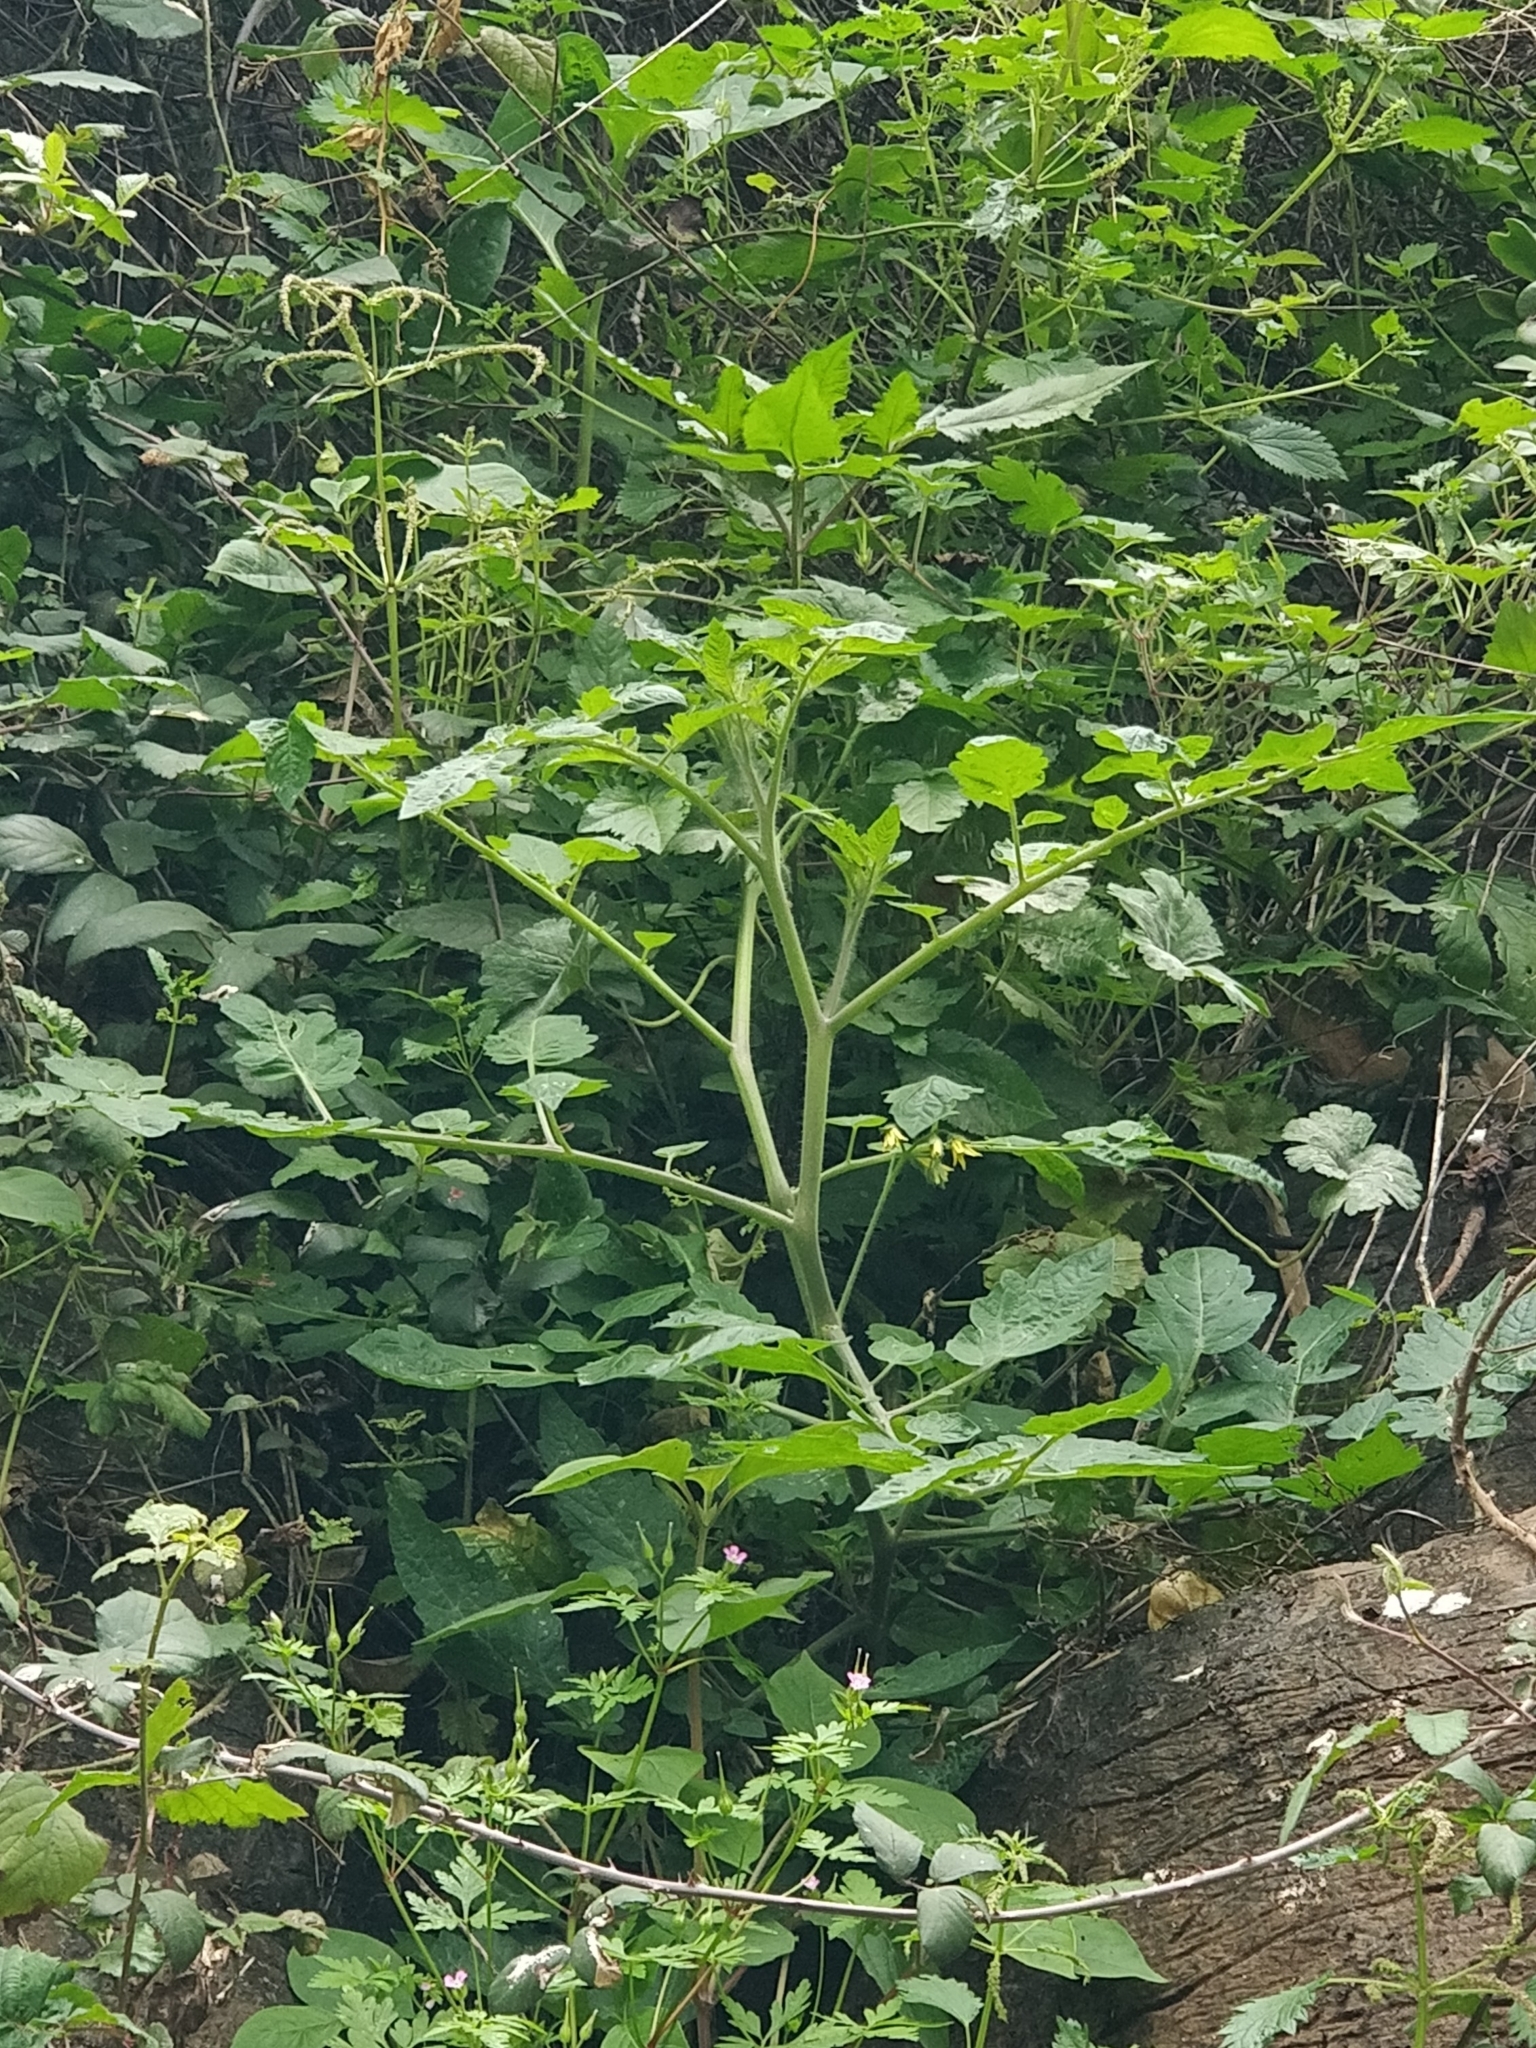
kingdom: Plantae
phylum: Tracheophyta
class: Magnoliopsida
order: Solanales
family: Solanaceae
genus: Solanum
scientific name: Solanum lycopersicum
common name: Garden tomato
